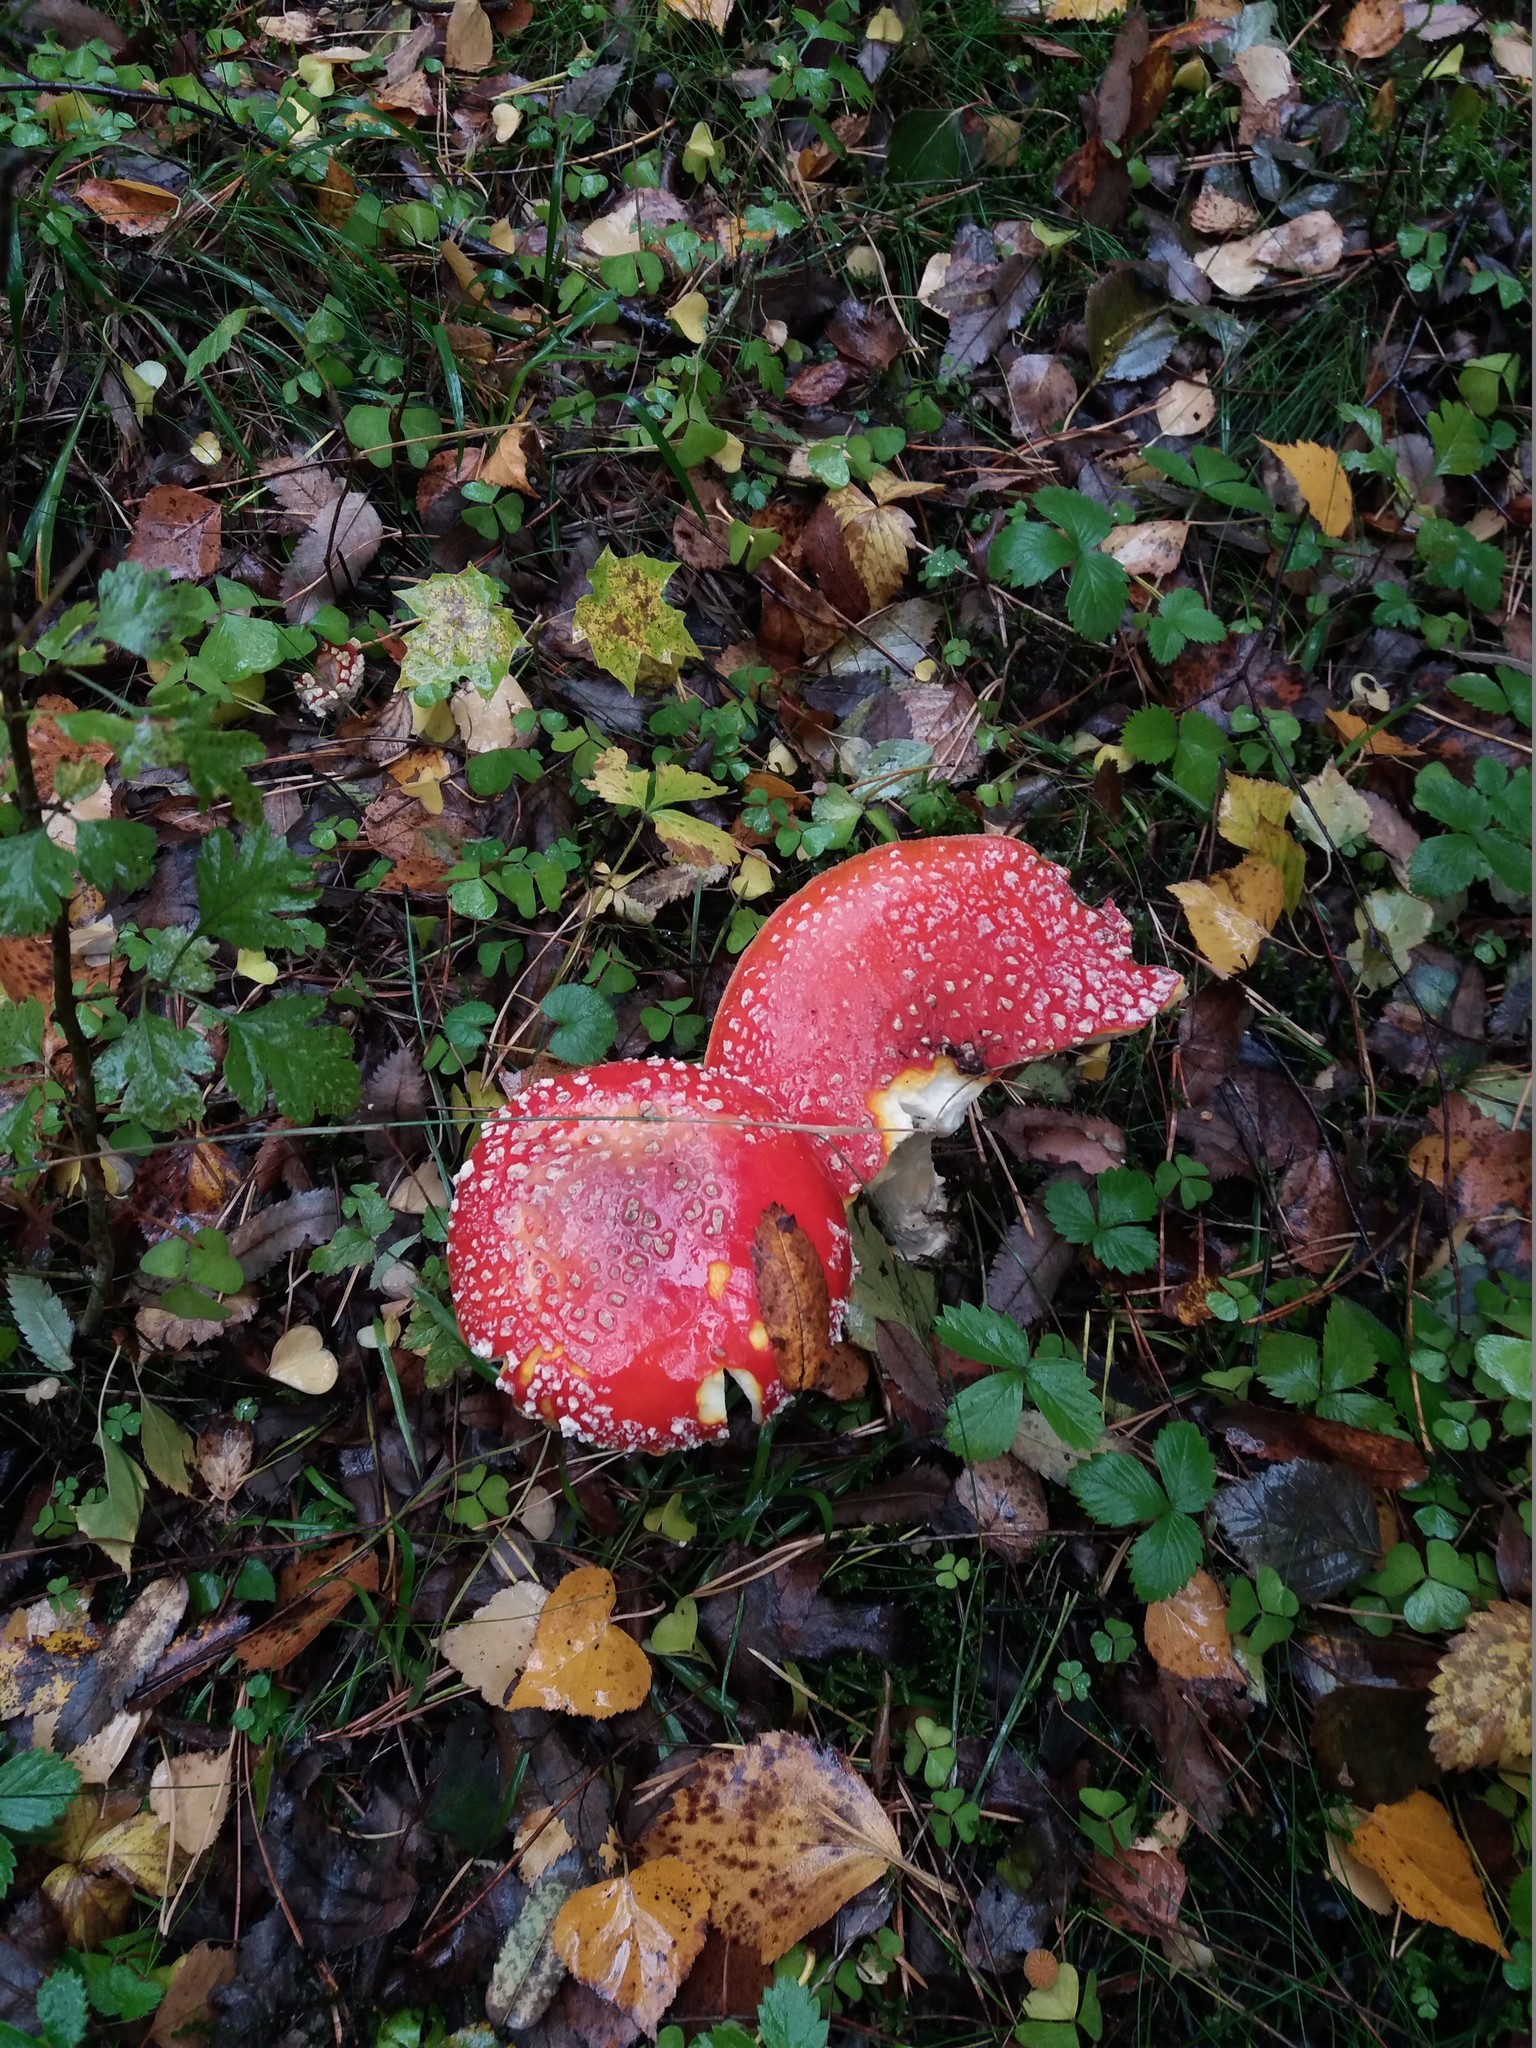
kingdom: Fungi
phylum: Basidiomycota
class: Agaricomycetes
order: Agaricales
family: Amanitaceae
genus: Amanita
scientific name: Amanita muscaria
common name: Fly agaric
